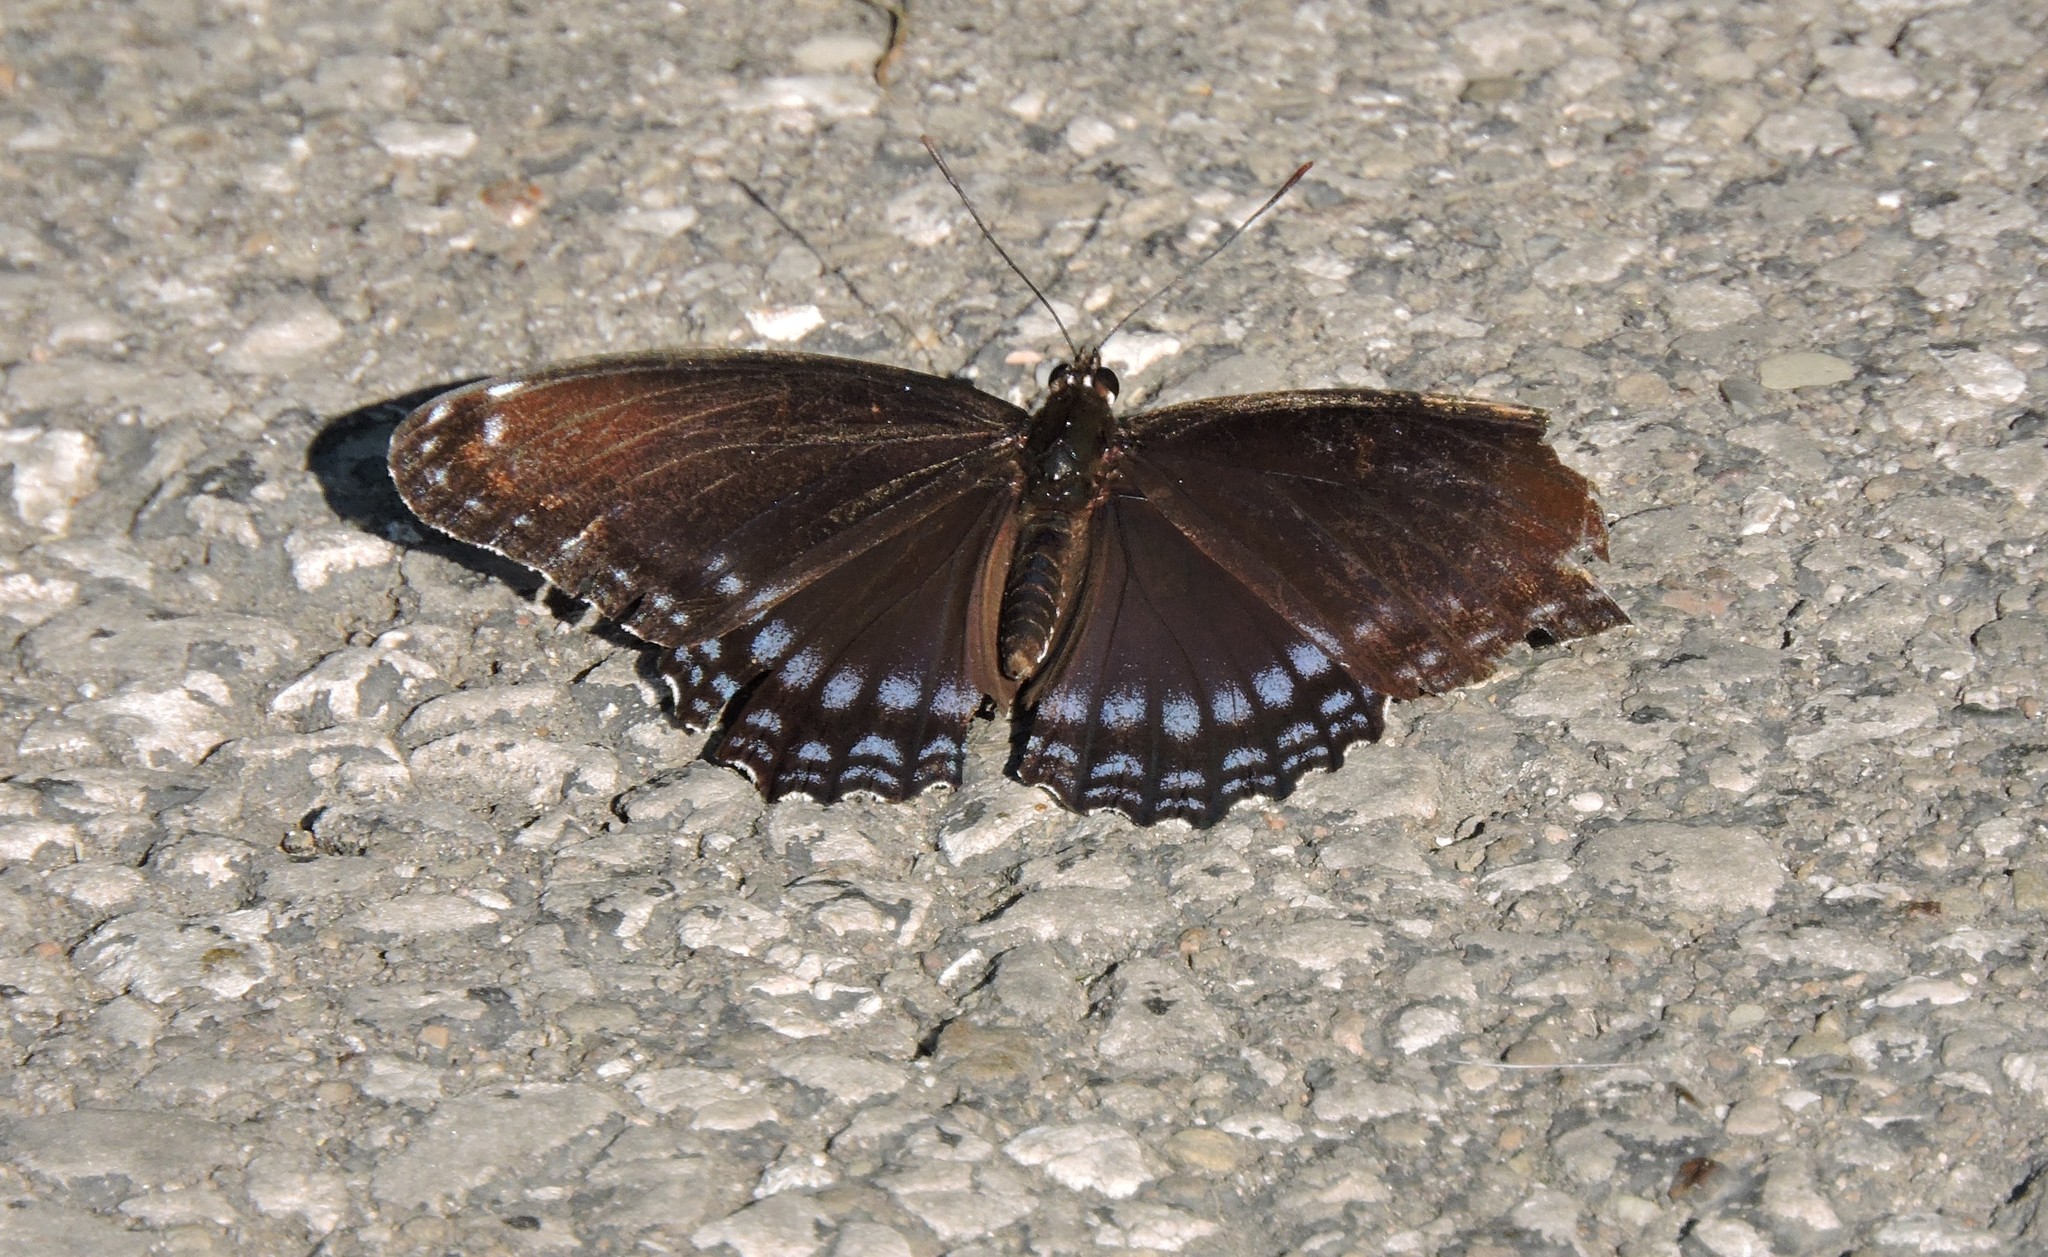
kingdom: Animalia
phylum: Arthropoda
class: Insecta
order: Lepidoptera
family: Nymphalidae
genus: Limenitis
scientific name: Limenitis astyanax
